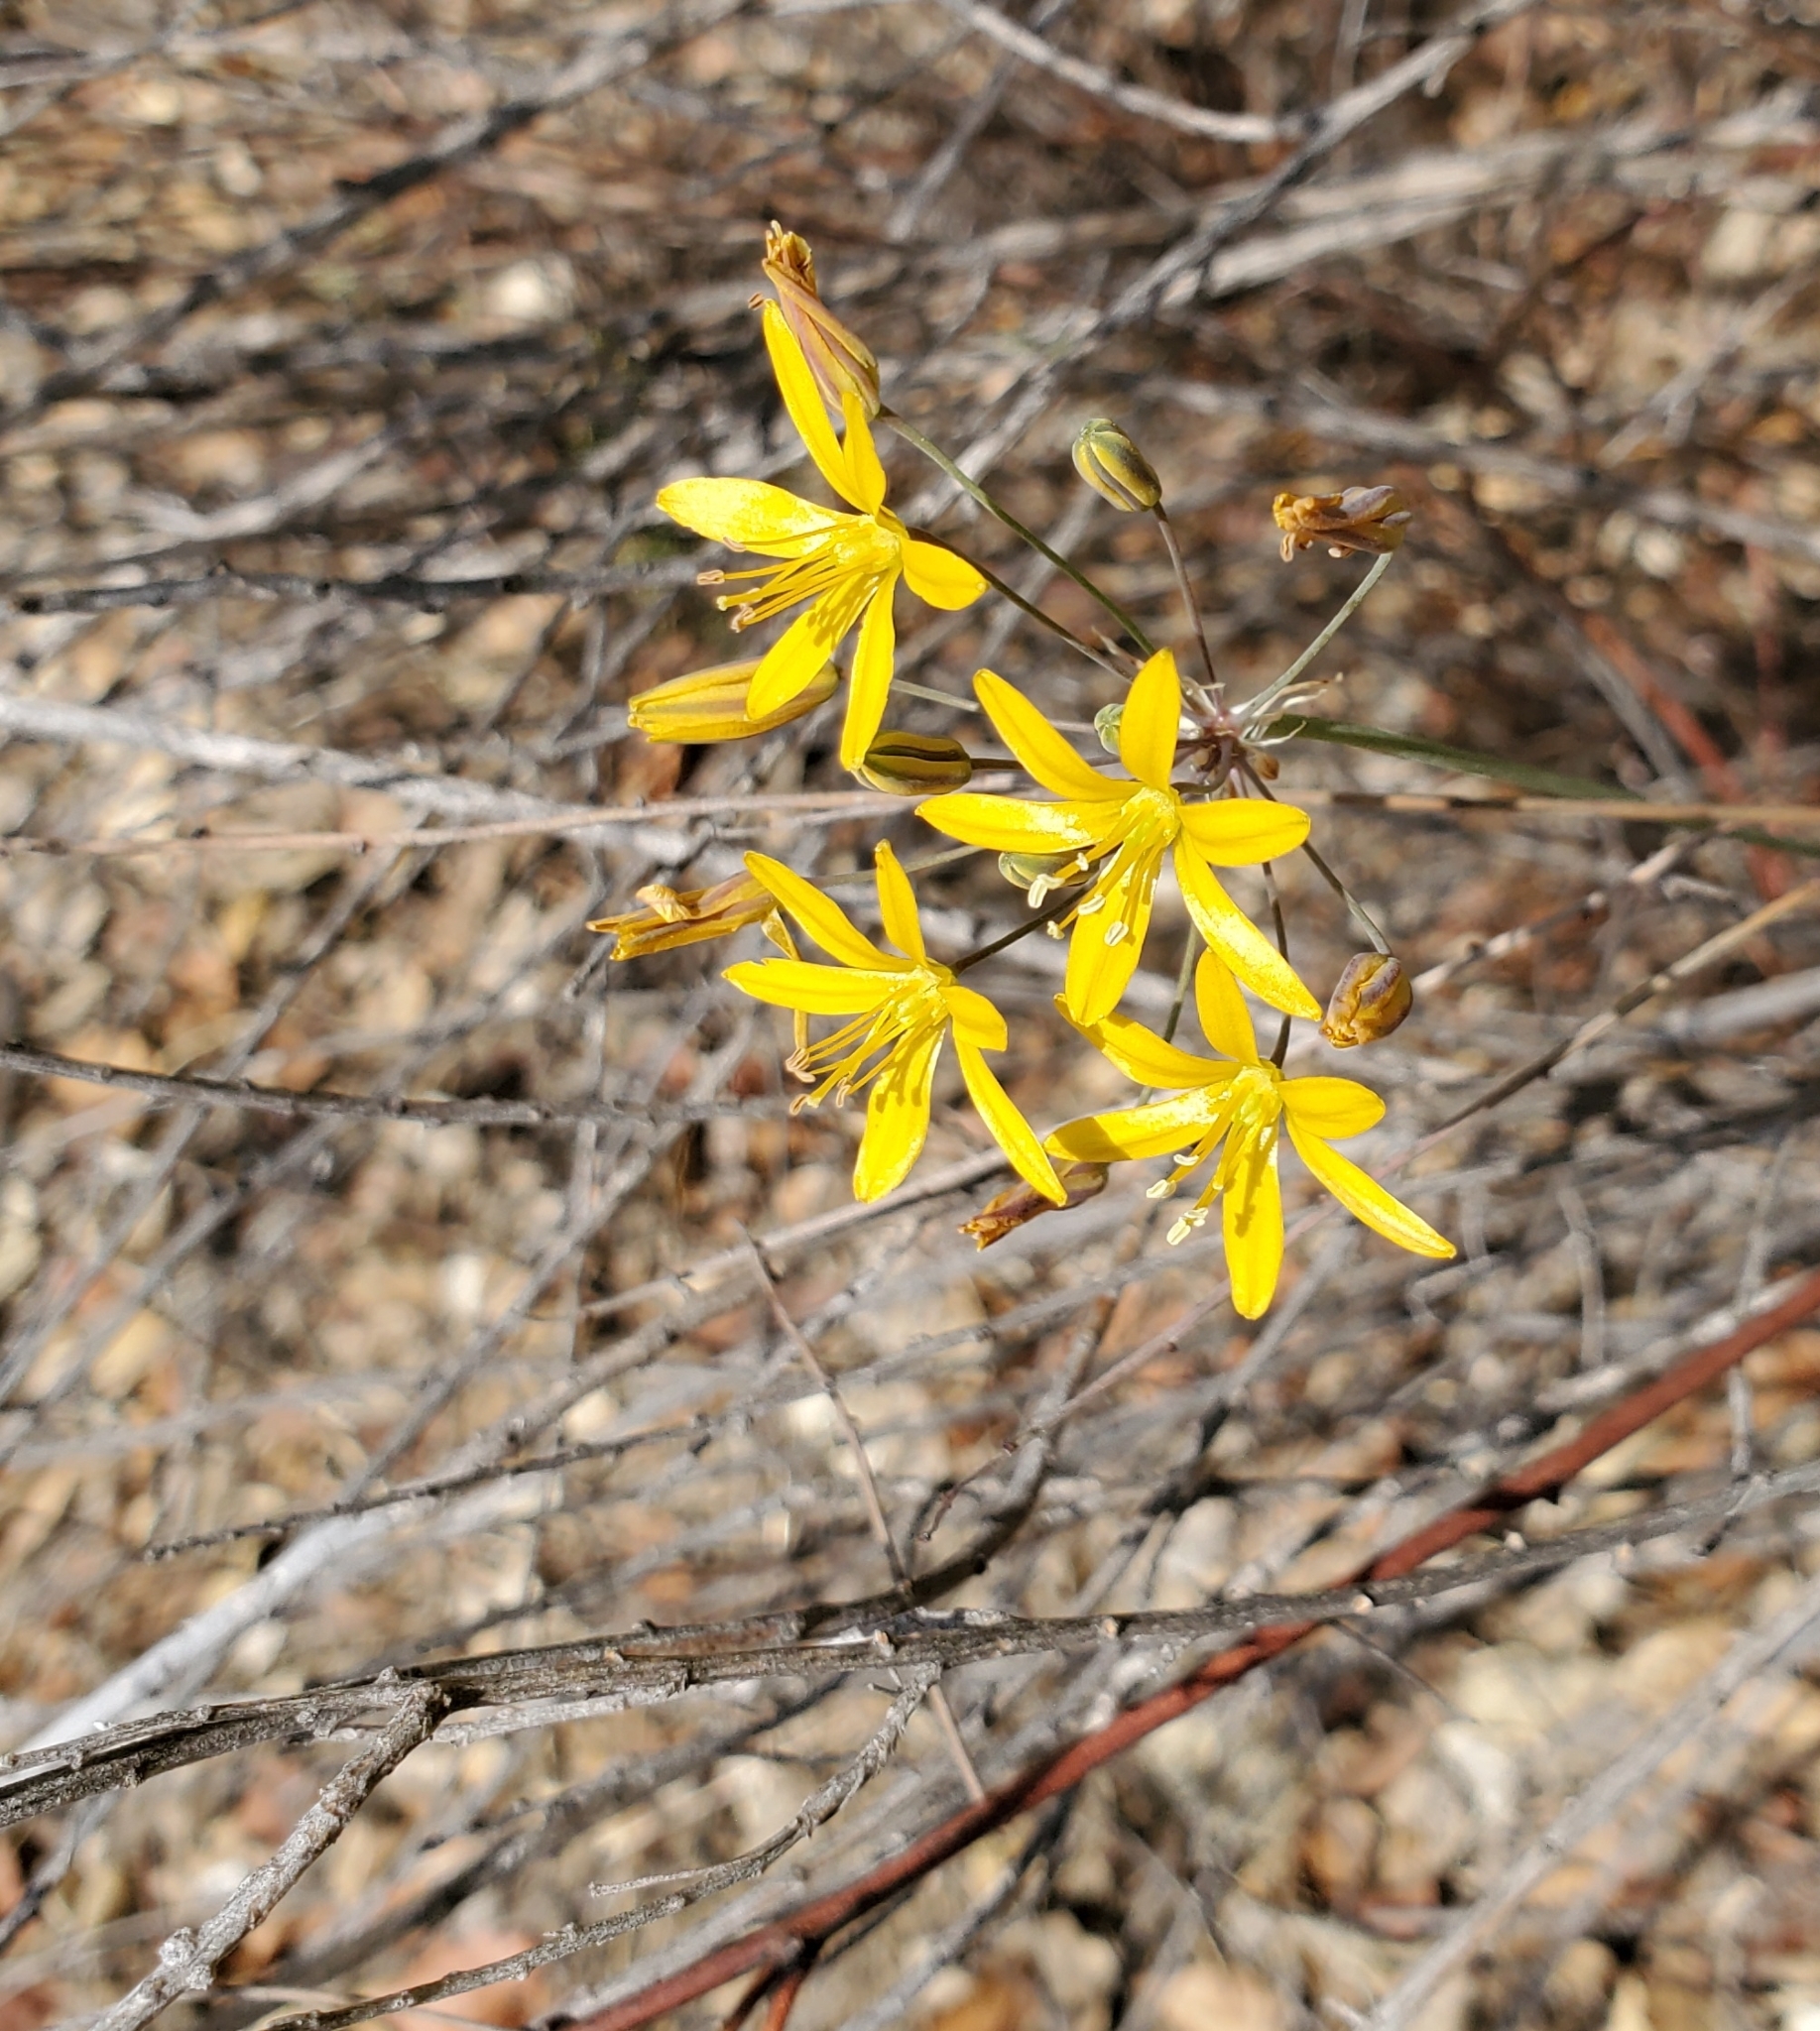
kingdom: Plantae
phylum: Tracheophyta
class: Liliopsida
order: Asparagales
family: Asparagaceae
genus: Bloomeria
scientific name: Bloomeria crocea
